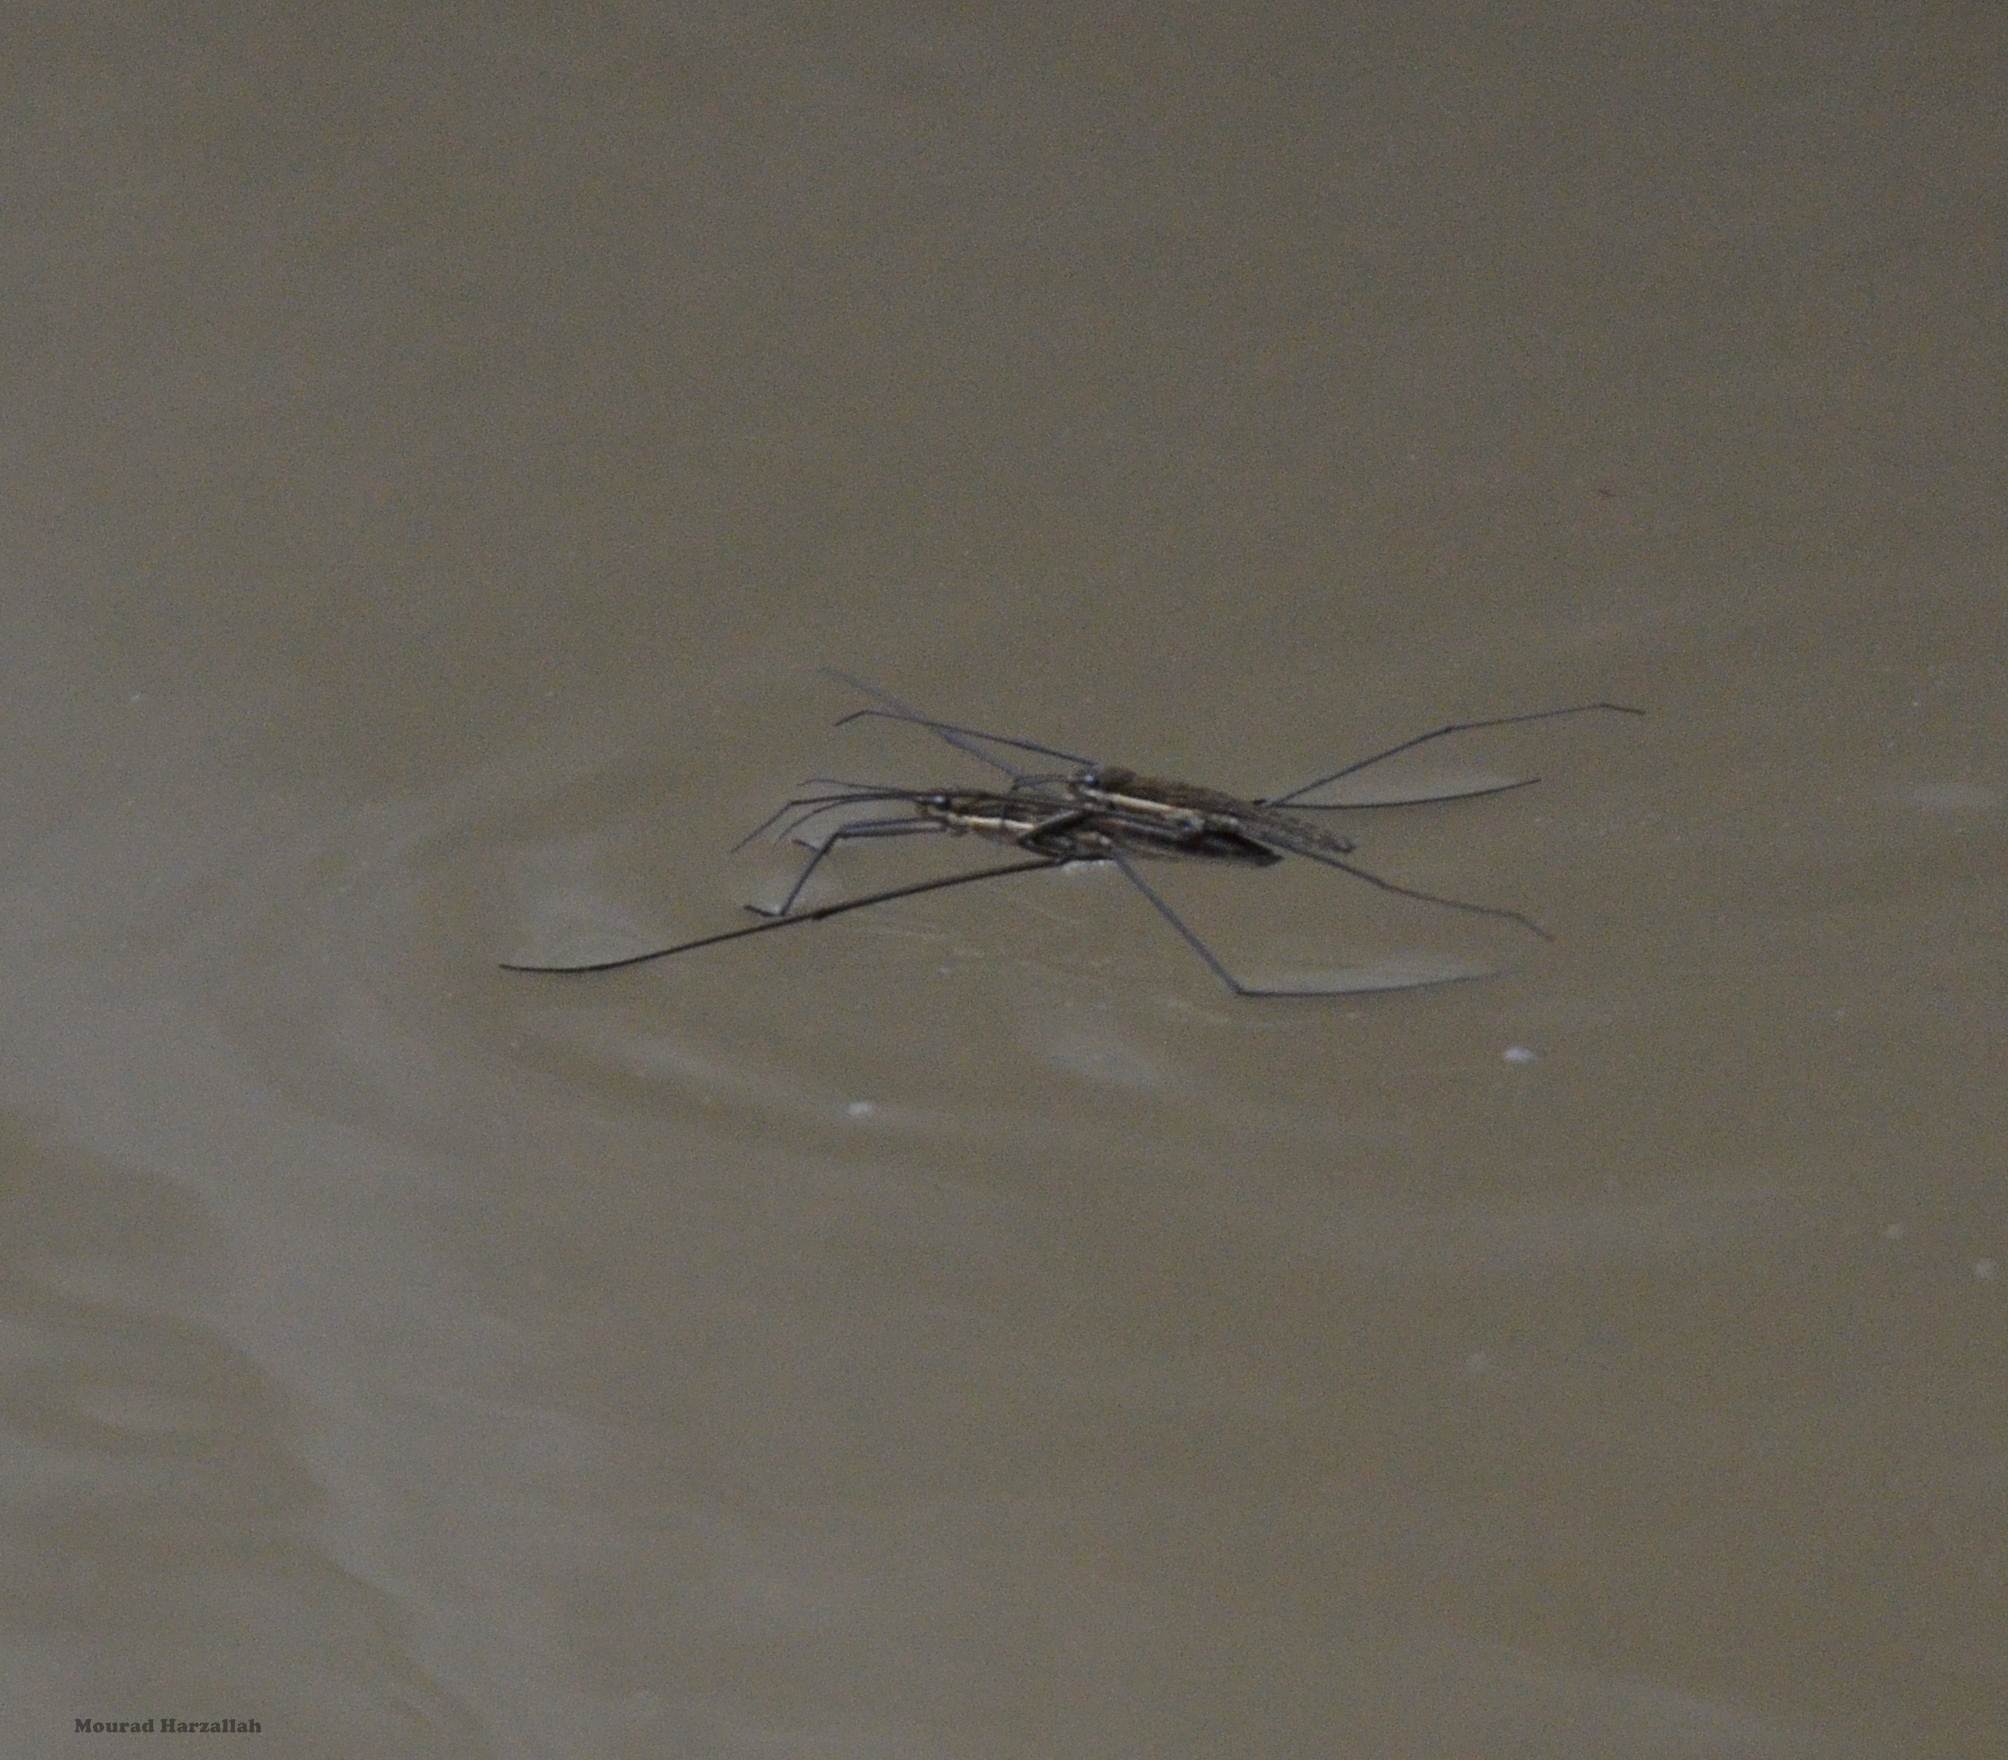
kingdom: Animalia
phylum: Arthropoda
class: Insecta
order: Hemiptera
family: Gerridae
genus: Aquarius
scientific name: Aquarius
